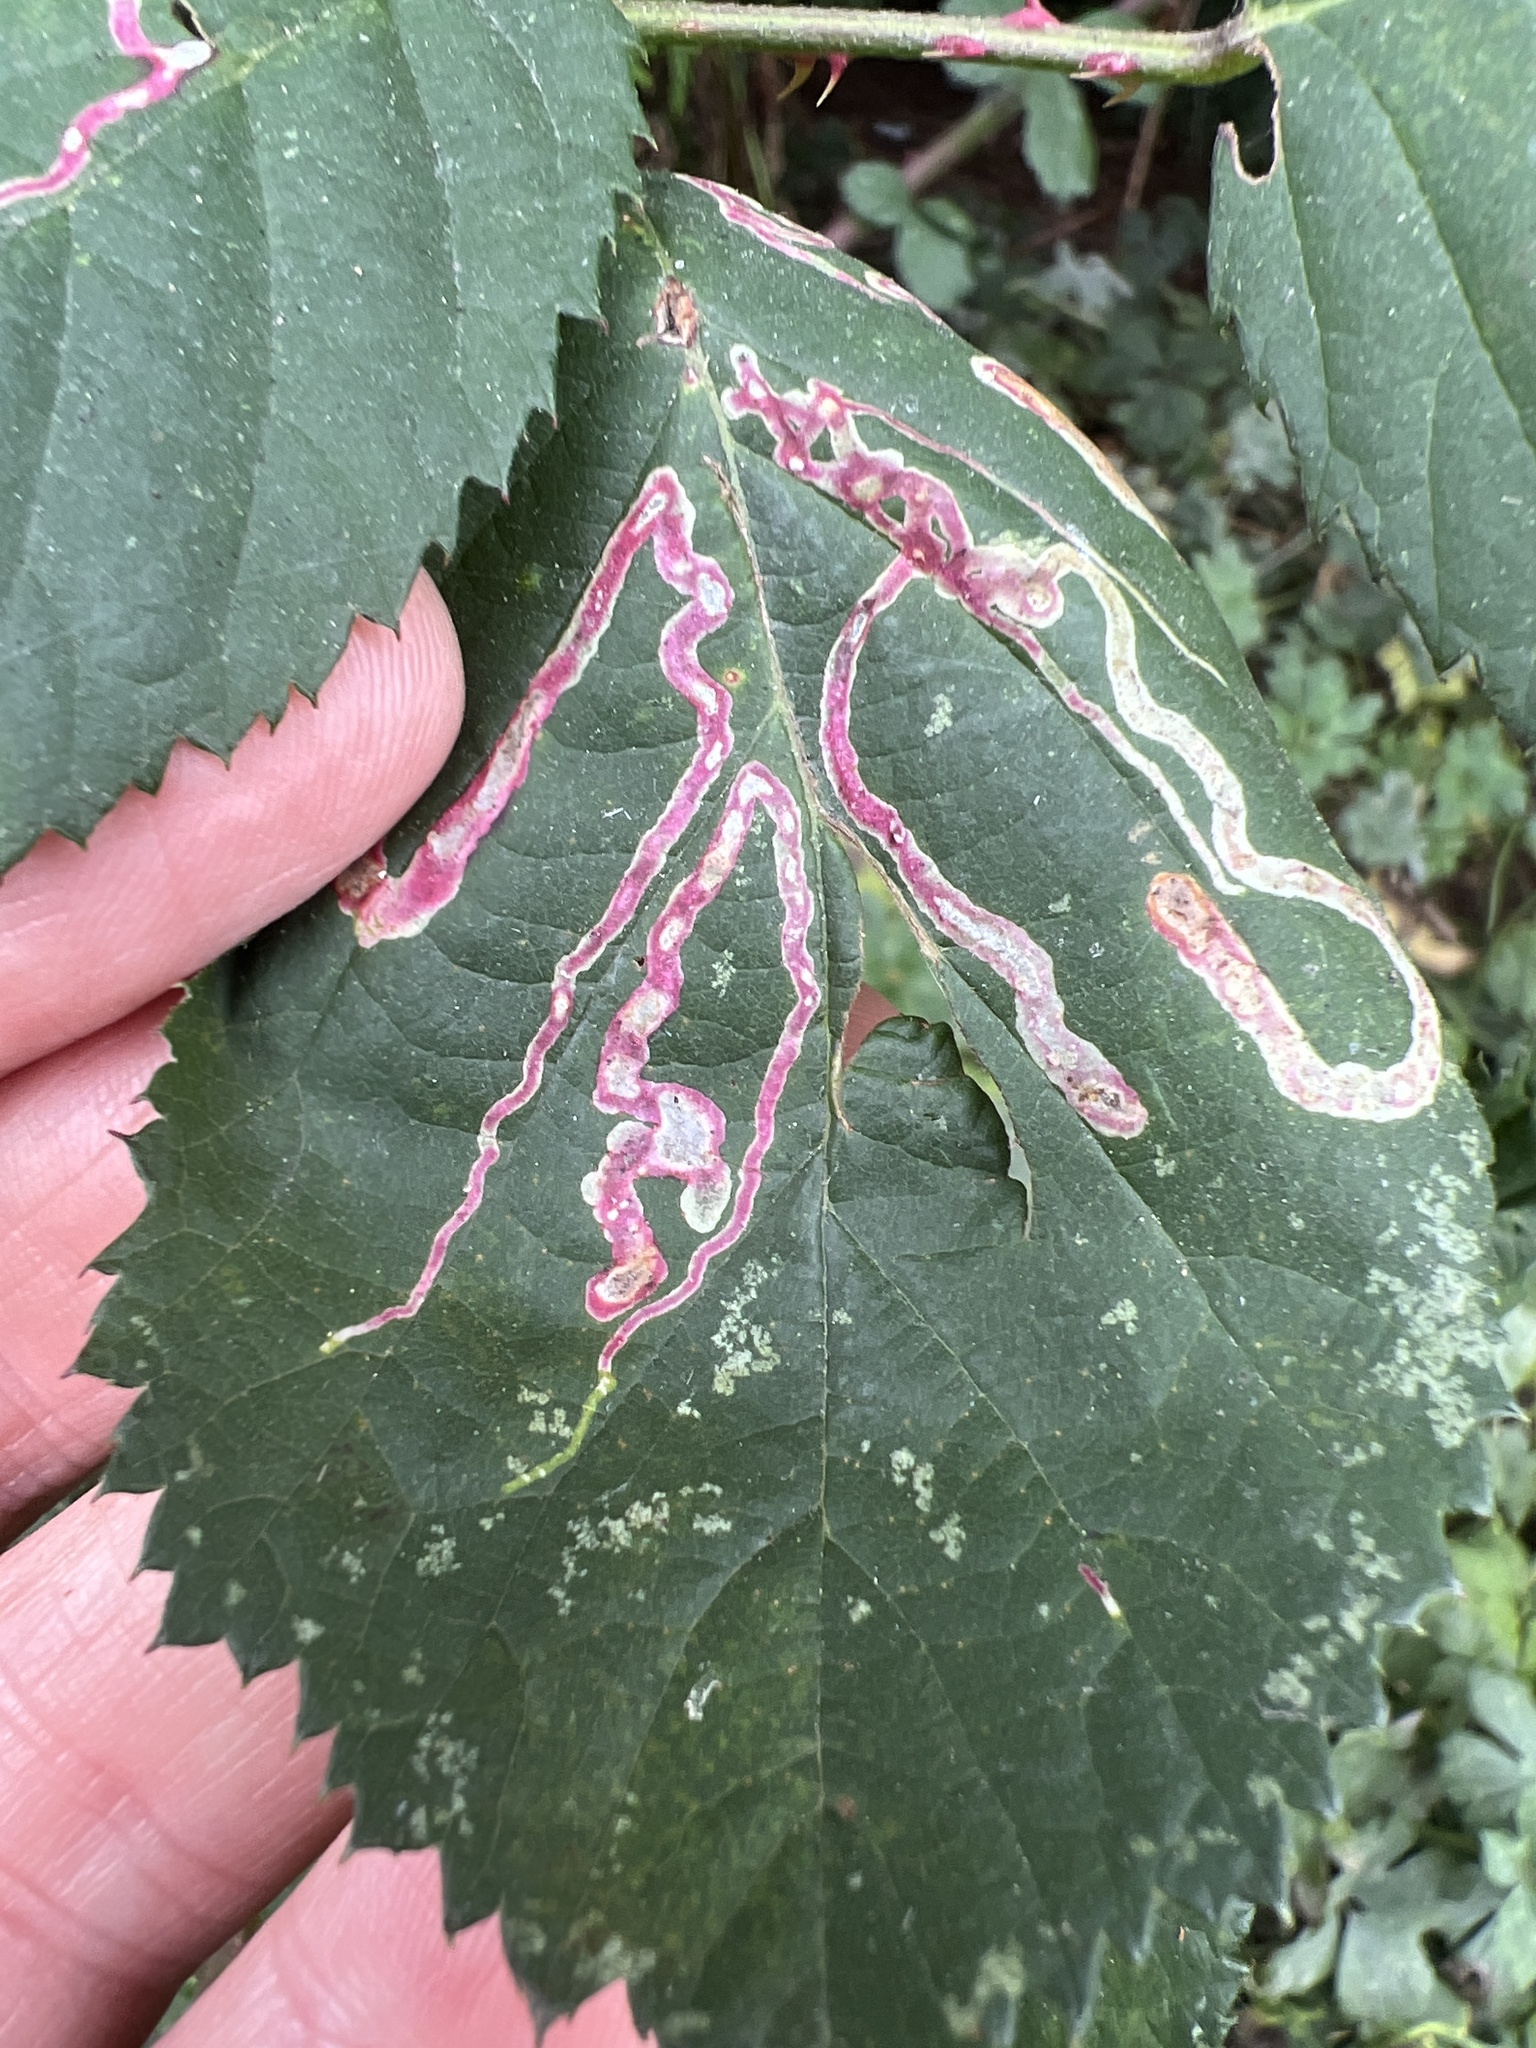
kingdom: Animalia
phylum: Arthropoda
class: Insecta
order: Diptera
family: Agromyzidae
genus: Agromyza
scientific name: Agromyza vockerothi
